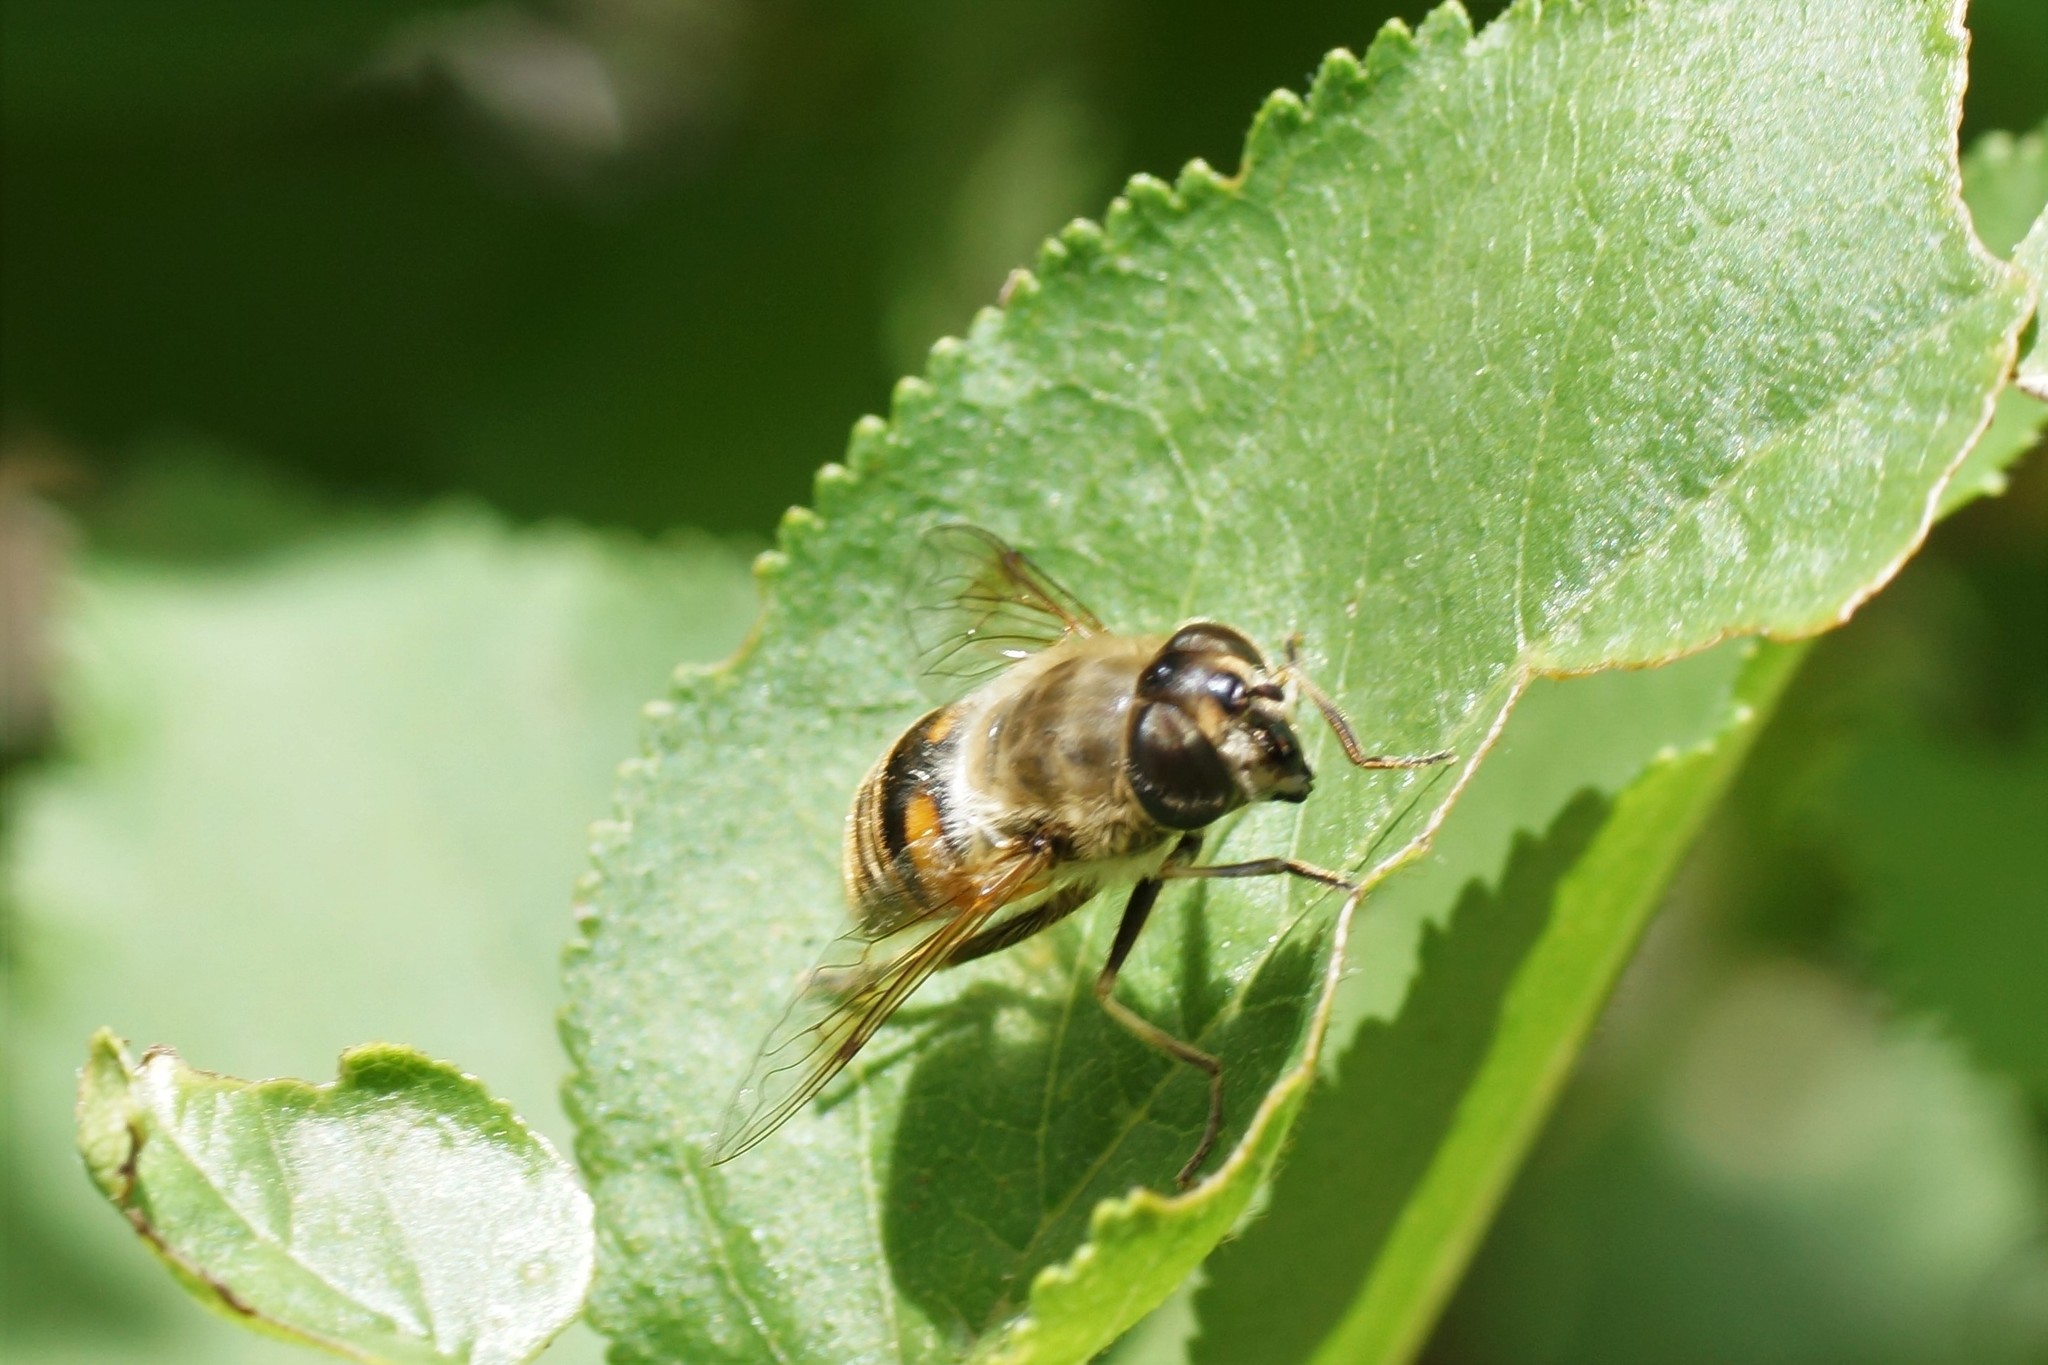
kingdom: Animalia
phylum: Arthropoda
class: Insecta
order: Diptera
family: Syrphidae
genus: Eristalis
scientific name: Eristalis tenax
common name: Drone fly
